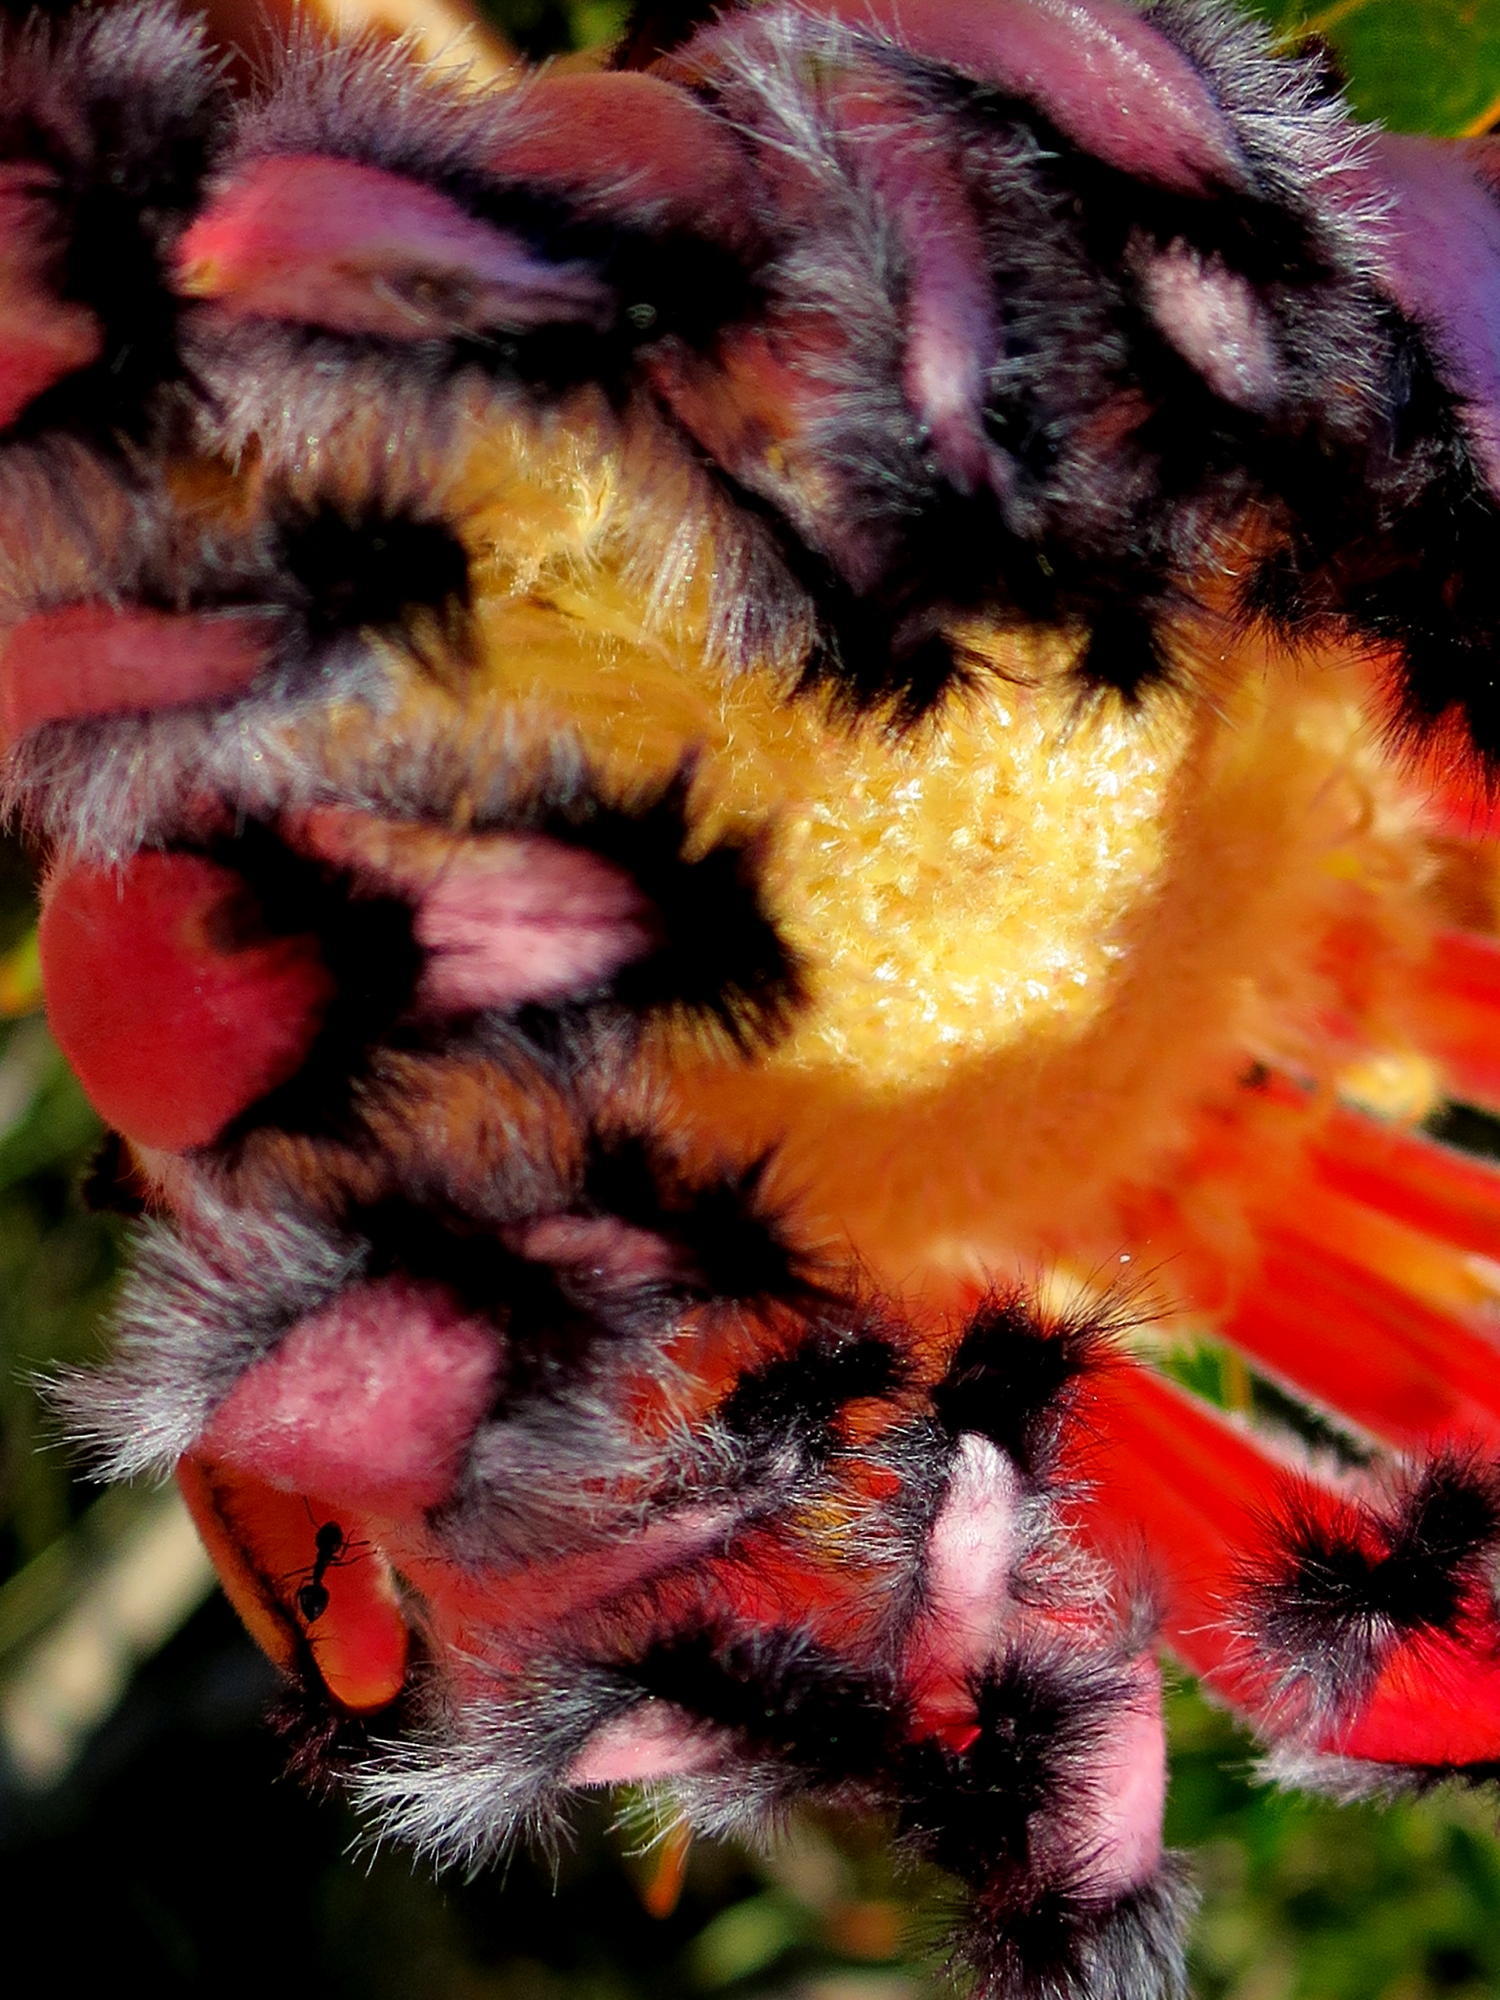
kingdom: Plantae
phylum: Tracheophyta
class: Magnoliopsida
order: Proteales
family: Proteaceae
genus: Protea
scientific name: Protea neriifolia
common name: Blue sugarbush
